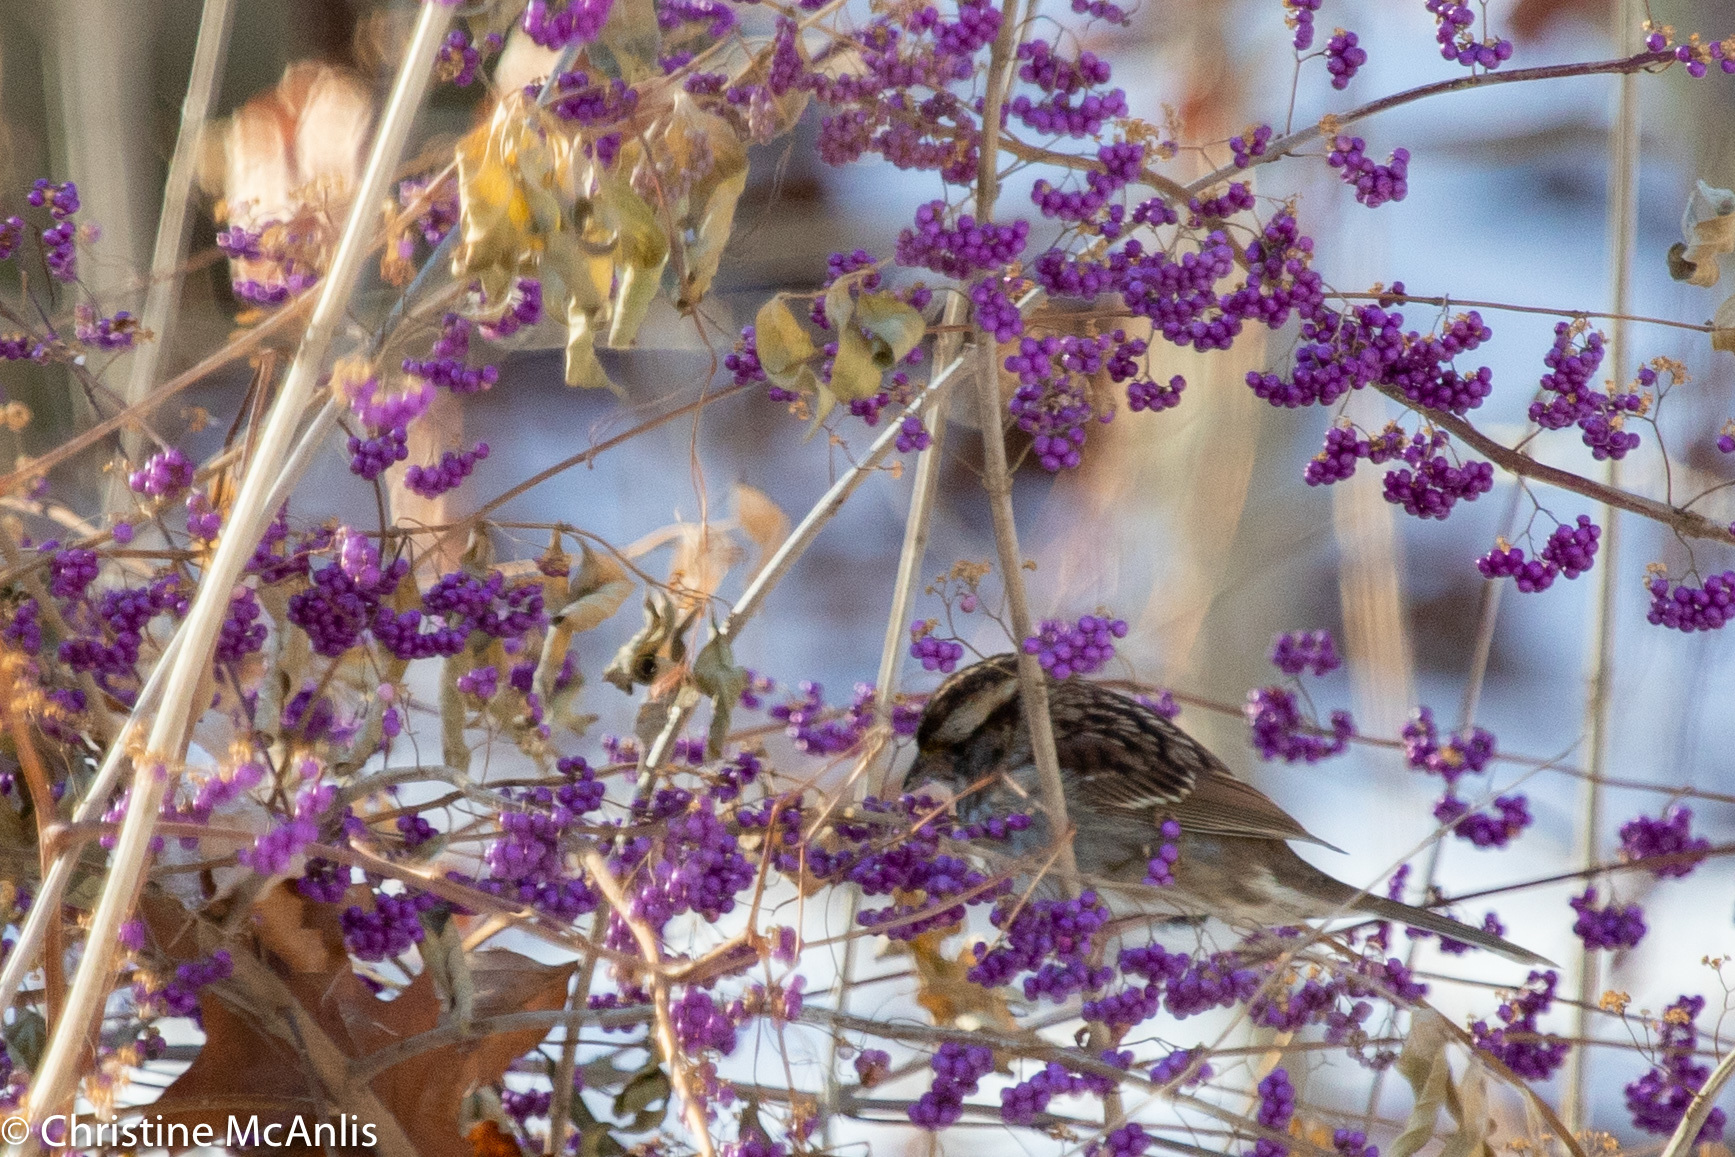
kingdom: Animalia
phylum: Chordata
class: Aves
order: Passeriformes
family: Passerellidae
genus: Zonotrichia
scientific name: Zonotrichia albicollis
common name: White-throated sparrow
